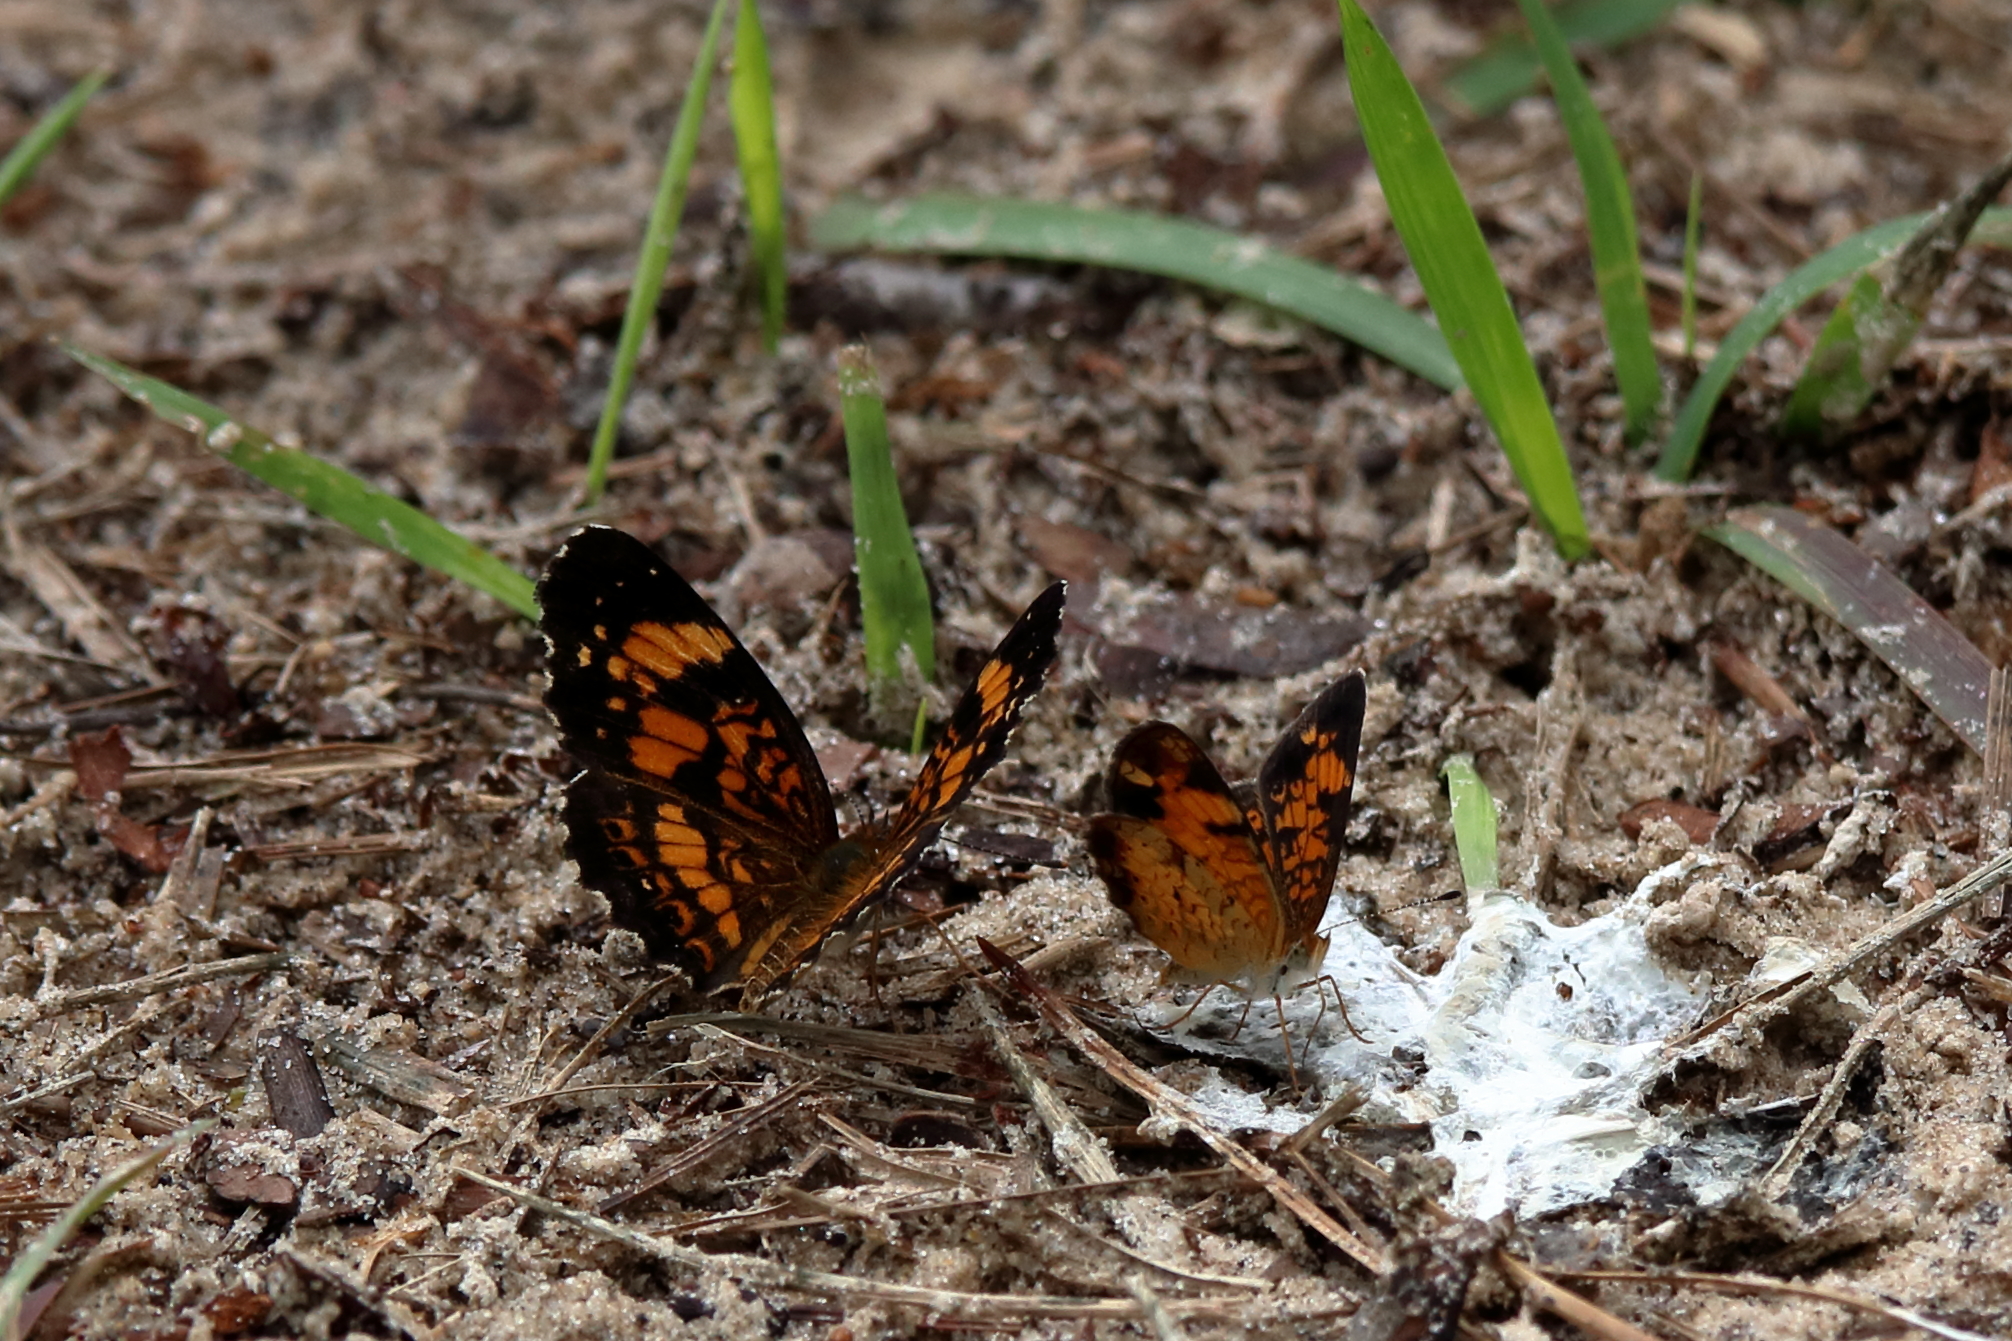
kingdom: Animalia
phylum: Arthropoda
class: Insecta
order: Lepidoptera
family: Nymphalidae
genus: Phyciodes
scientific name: Phyciodes tharos
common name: Pearl crescent
